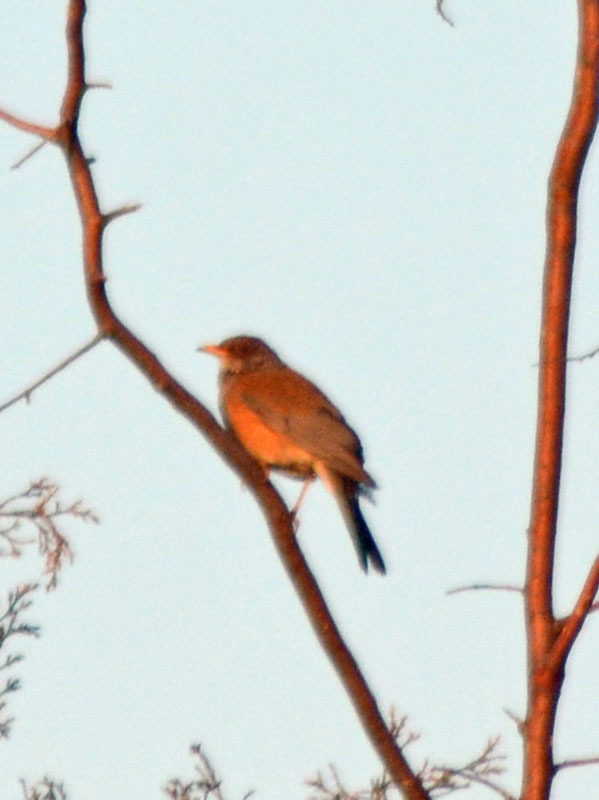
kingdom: Animalia
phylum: Chordata
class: Aves
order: Passeriformes
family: Turdidae
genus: Turdus
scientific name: Turdus rufopalliatus
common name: Rufous-backed robin
